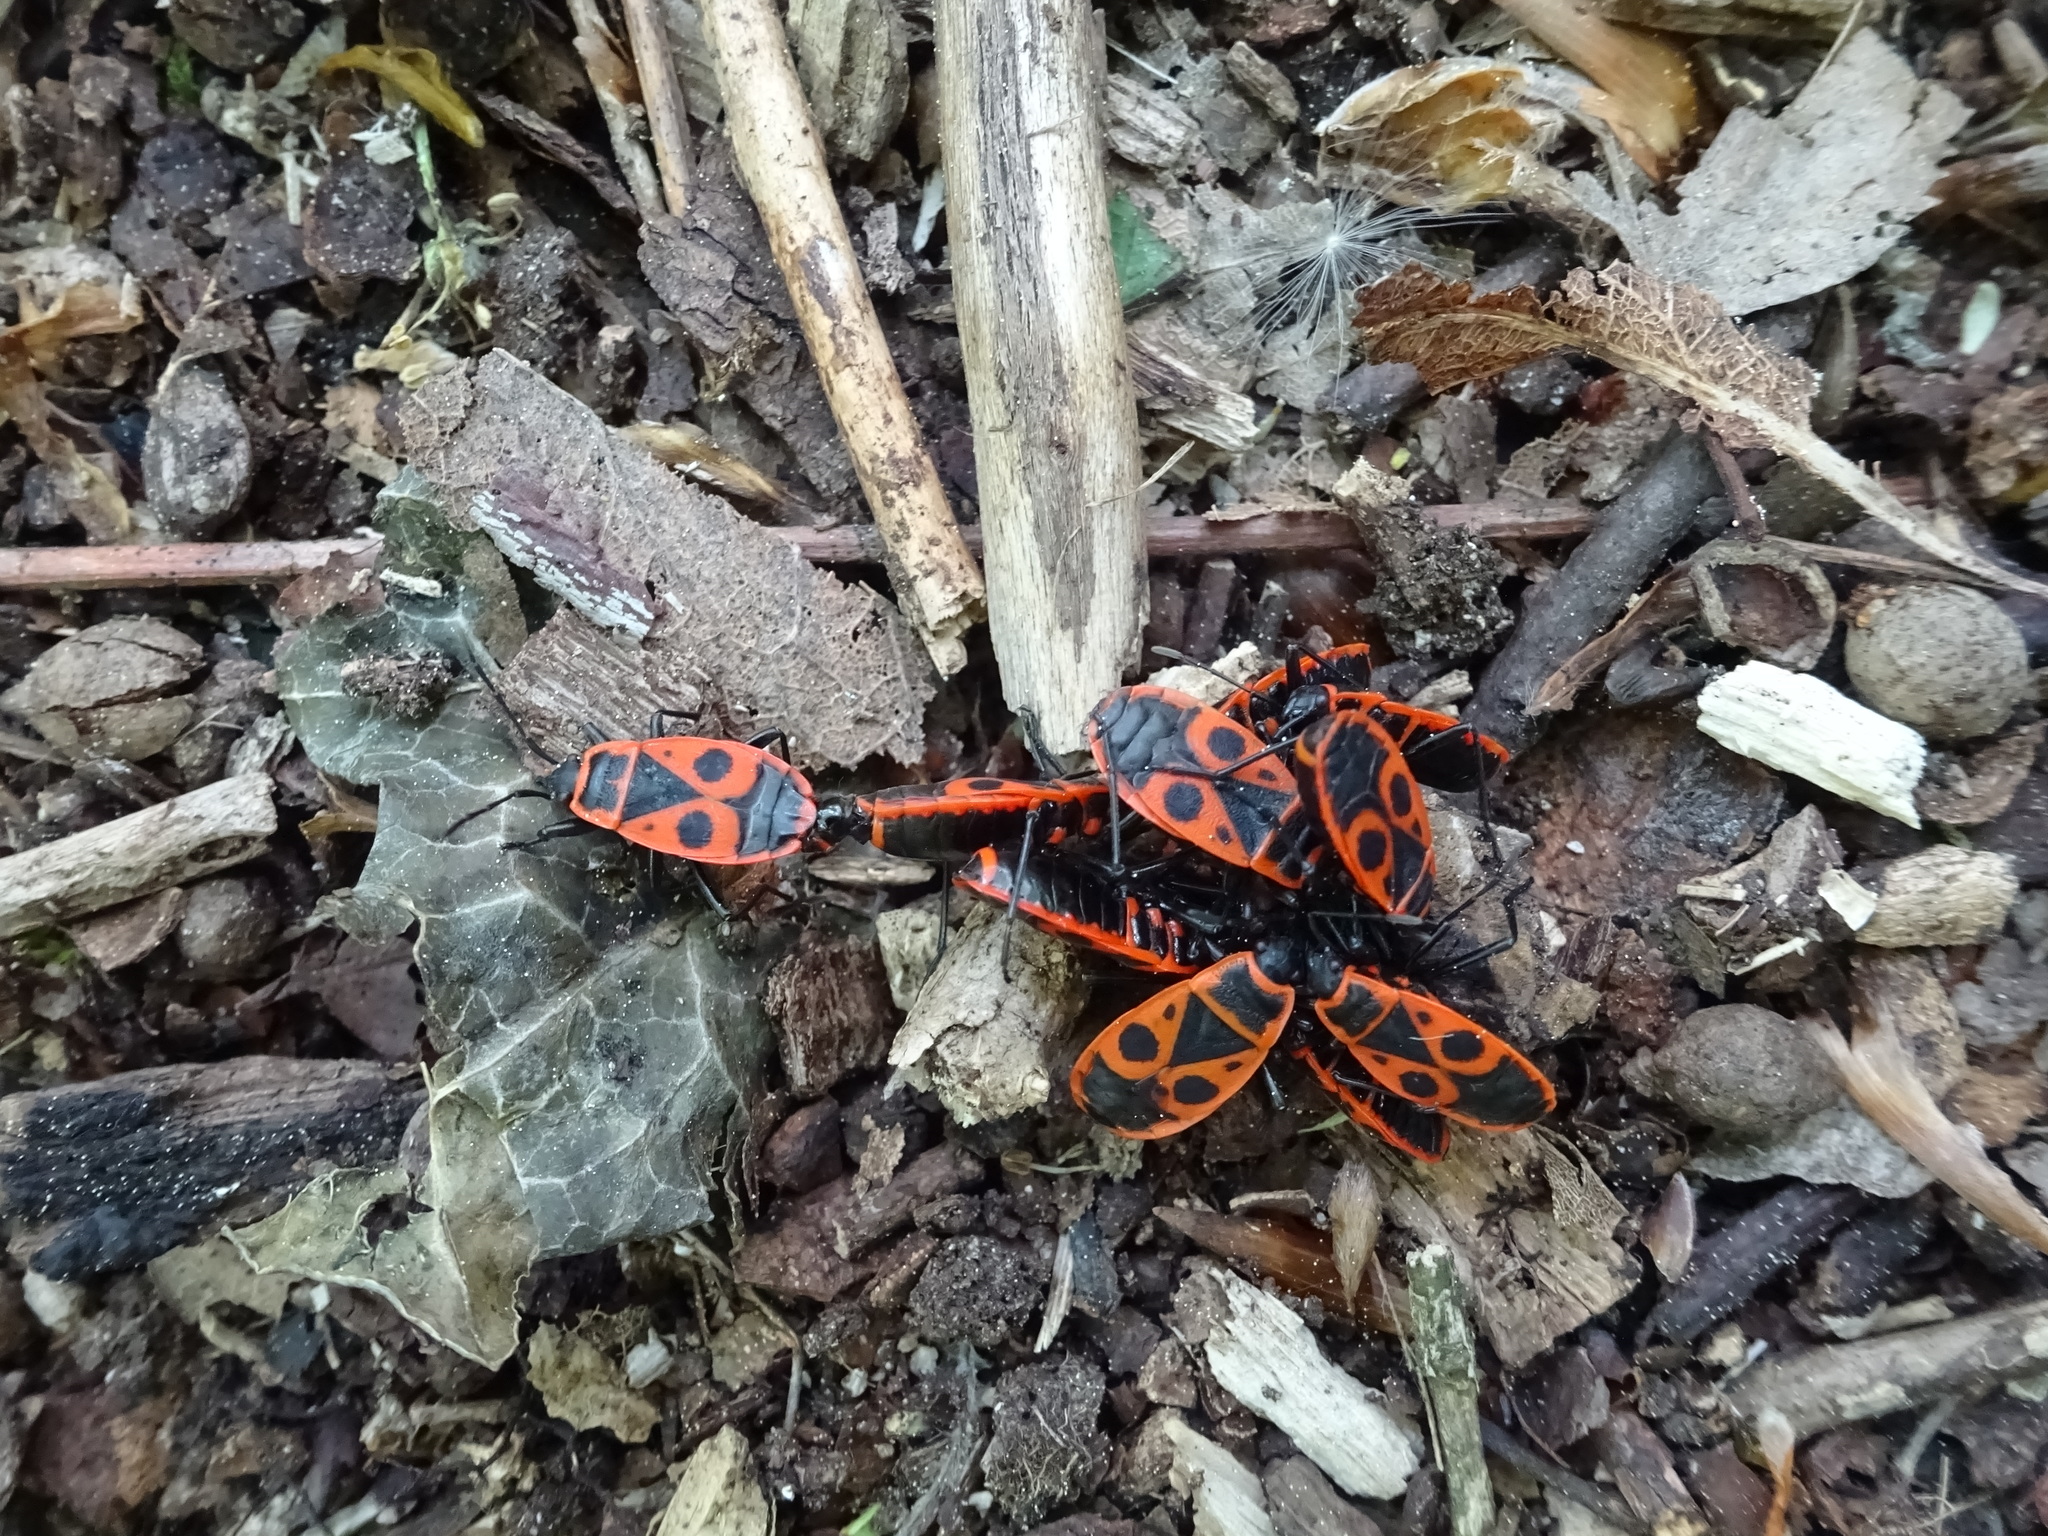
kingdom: Animalia
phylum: Arthropoda
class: Insecta
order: Hemiptera
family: Pyrrhocoridae
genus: Pyrrhocoris
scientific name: Pyrrhocoris apterus
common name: Firebug
